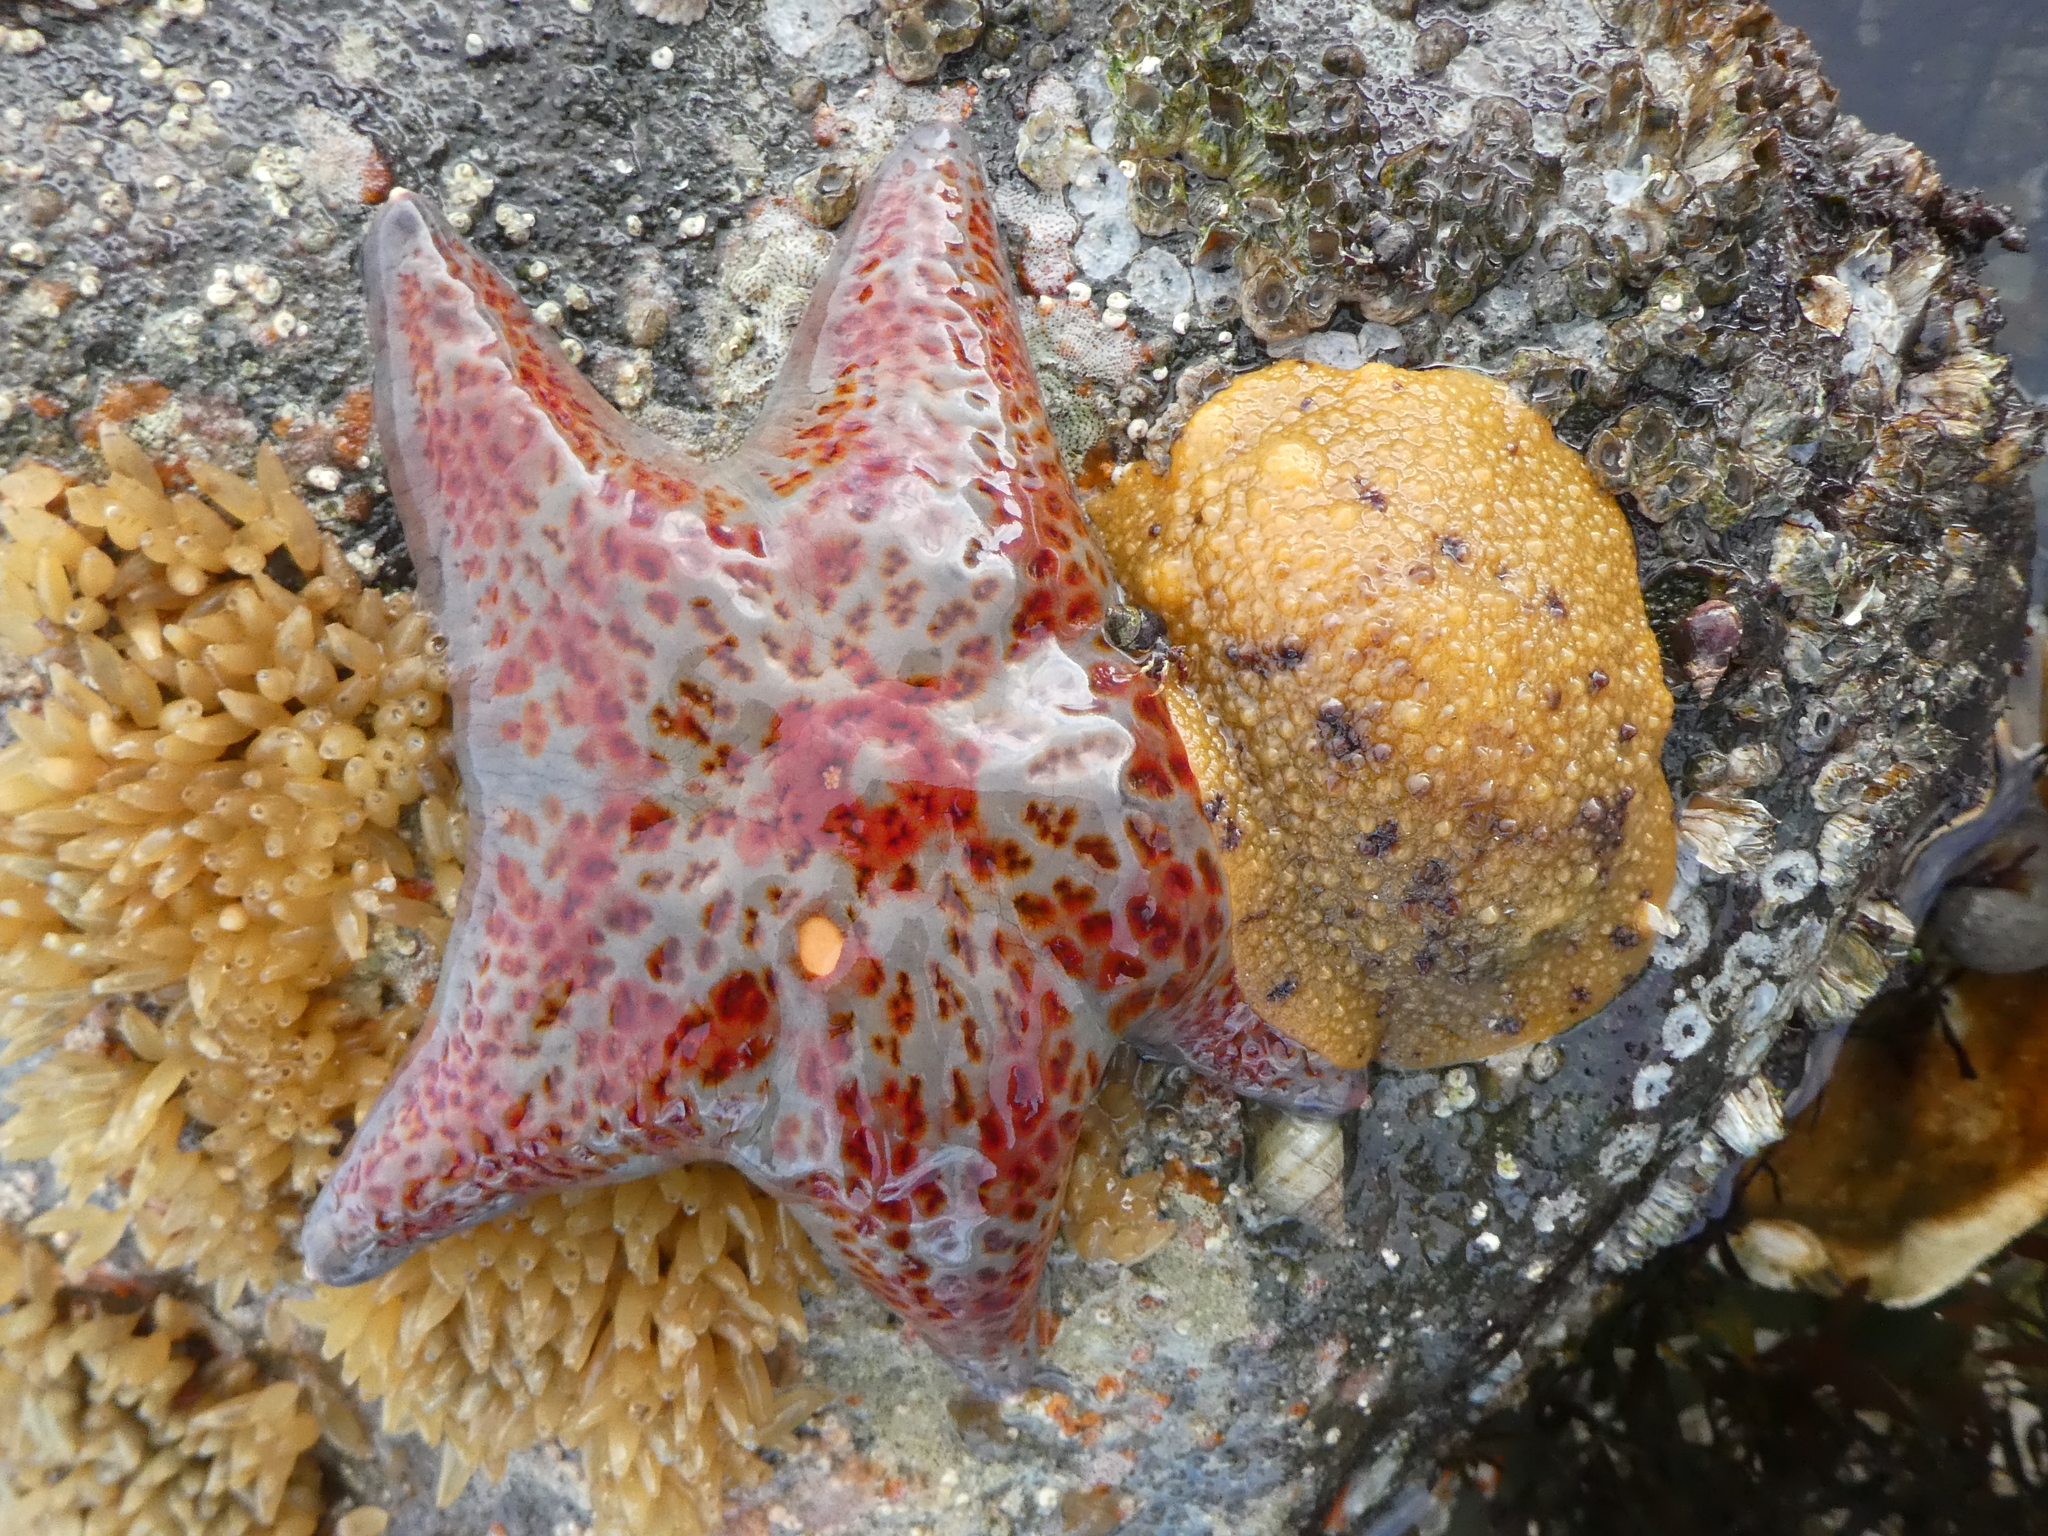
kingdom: Animalia
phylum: Echinodermata
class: Asteroidea
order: Valvatida
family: Asteropseidae
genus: Dermasterias
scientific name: Dermasterias imbricata
